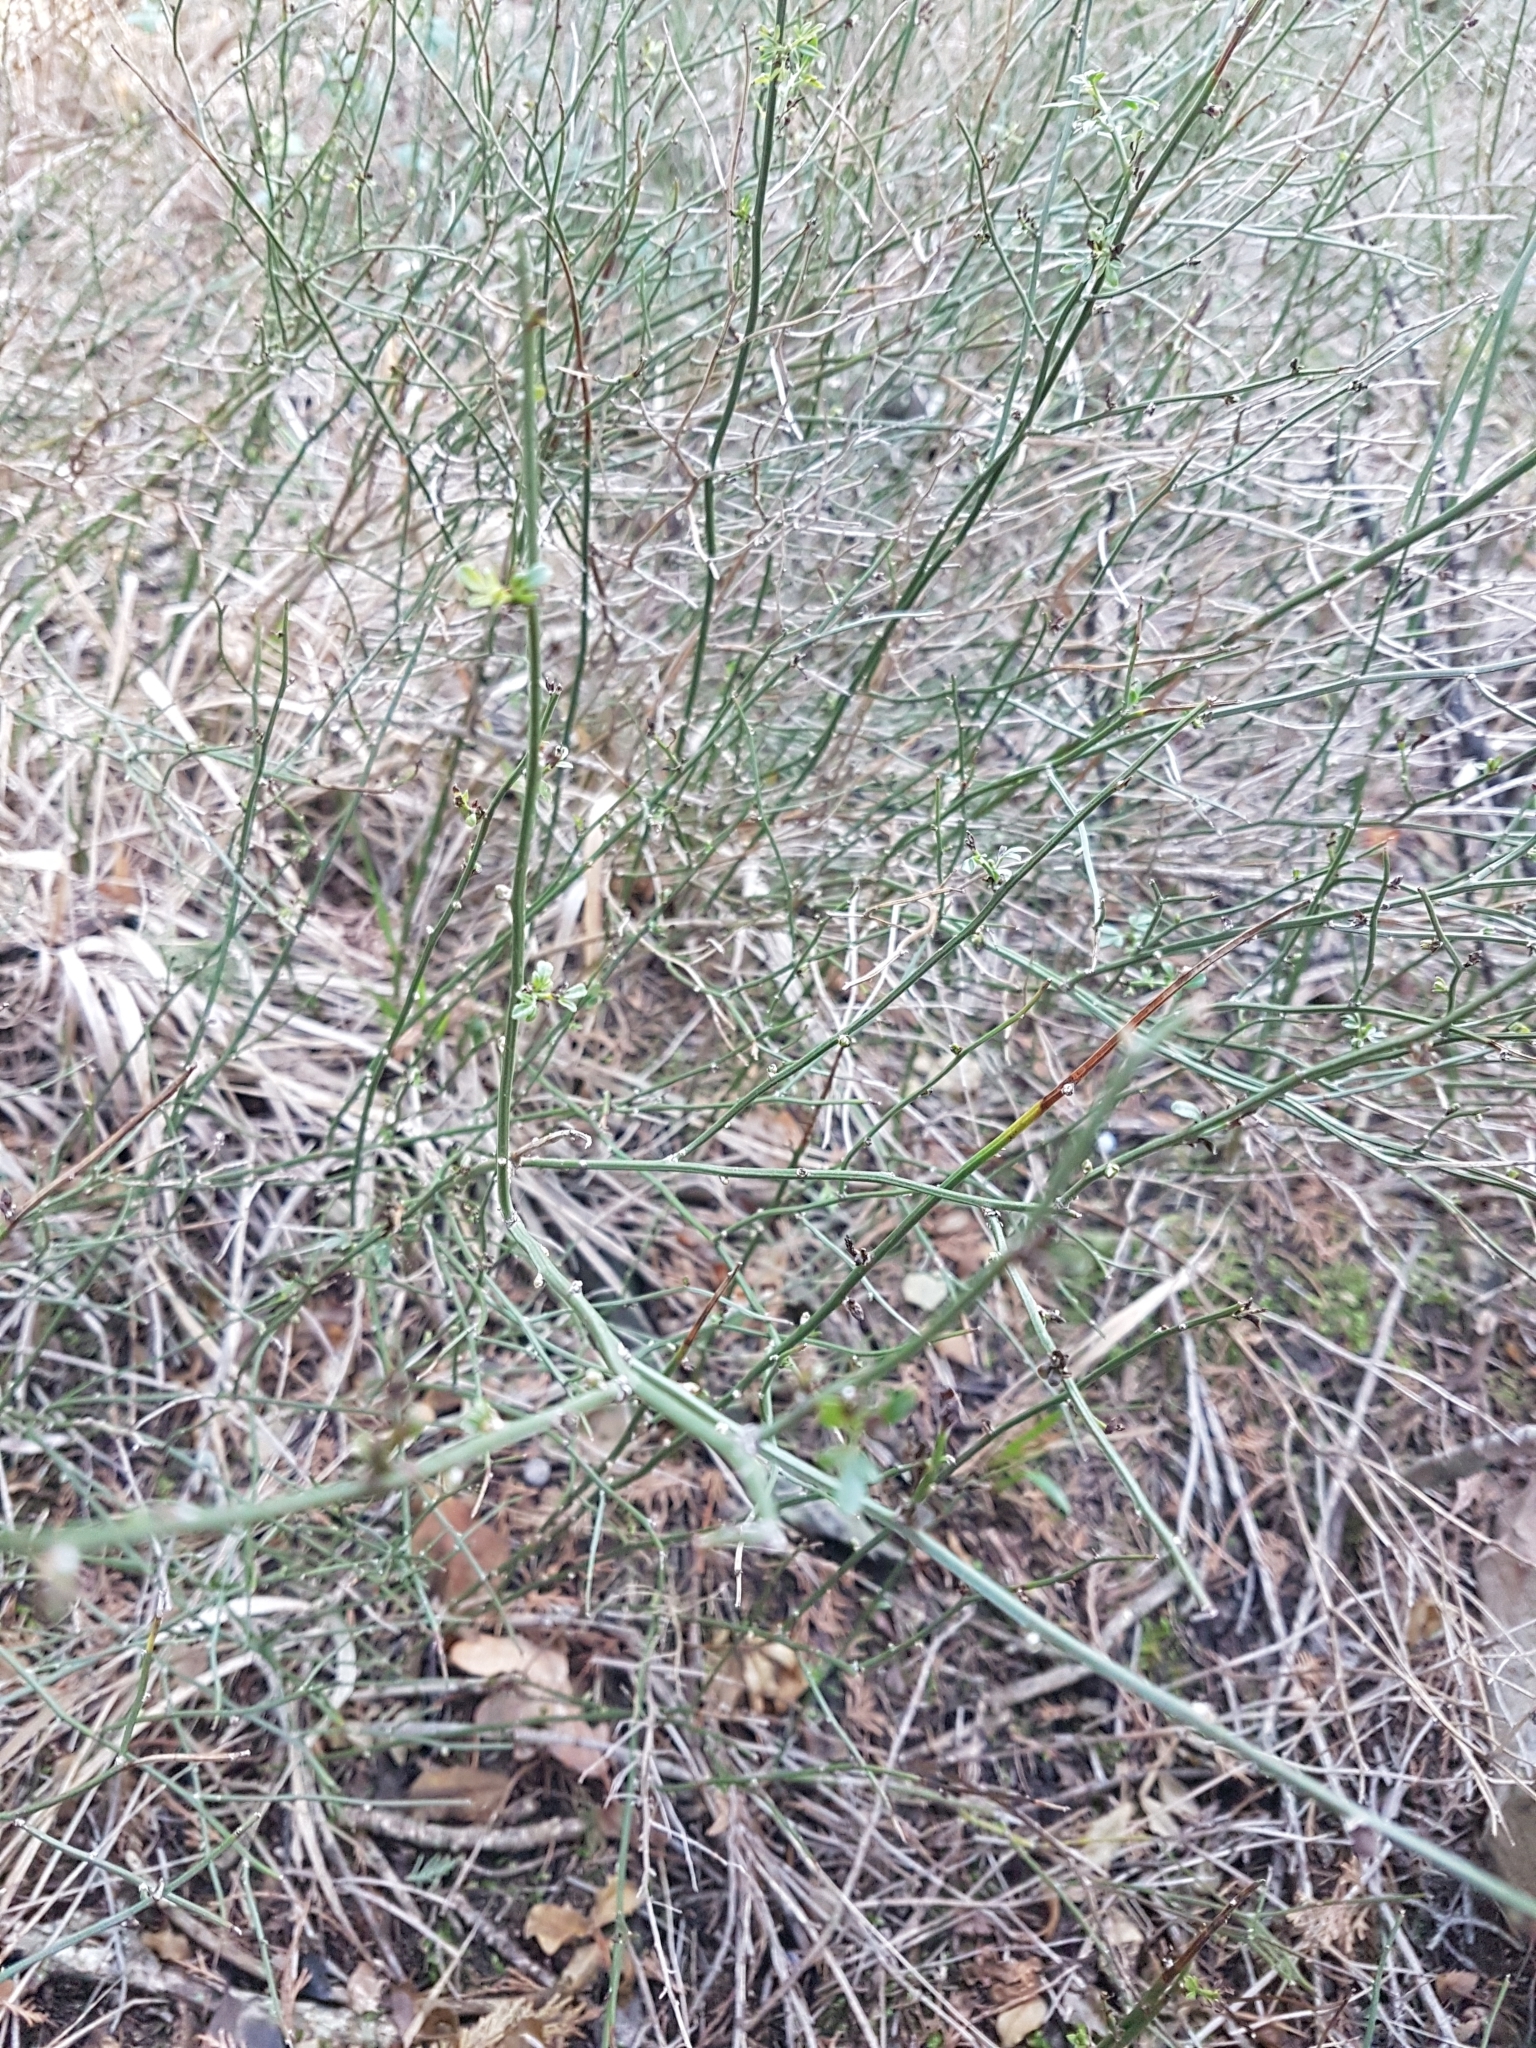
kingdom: Plantae
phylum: Tracheophyta
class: Magnoliopsida
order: Lamiales
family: Oleaceae
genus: Chrysojasminum
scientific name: Chrysojasminum fruticans
